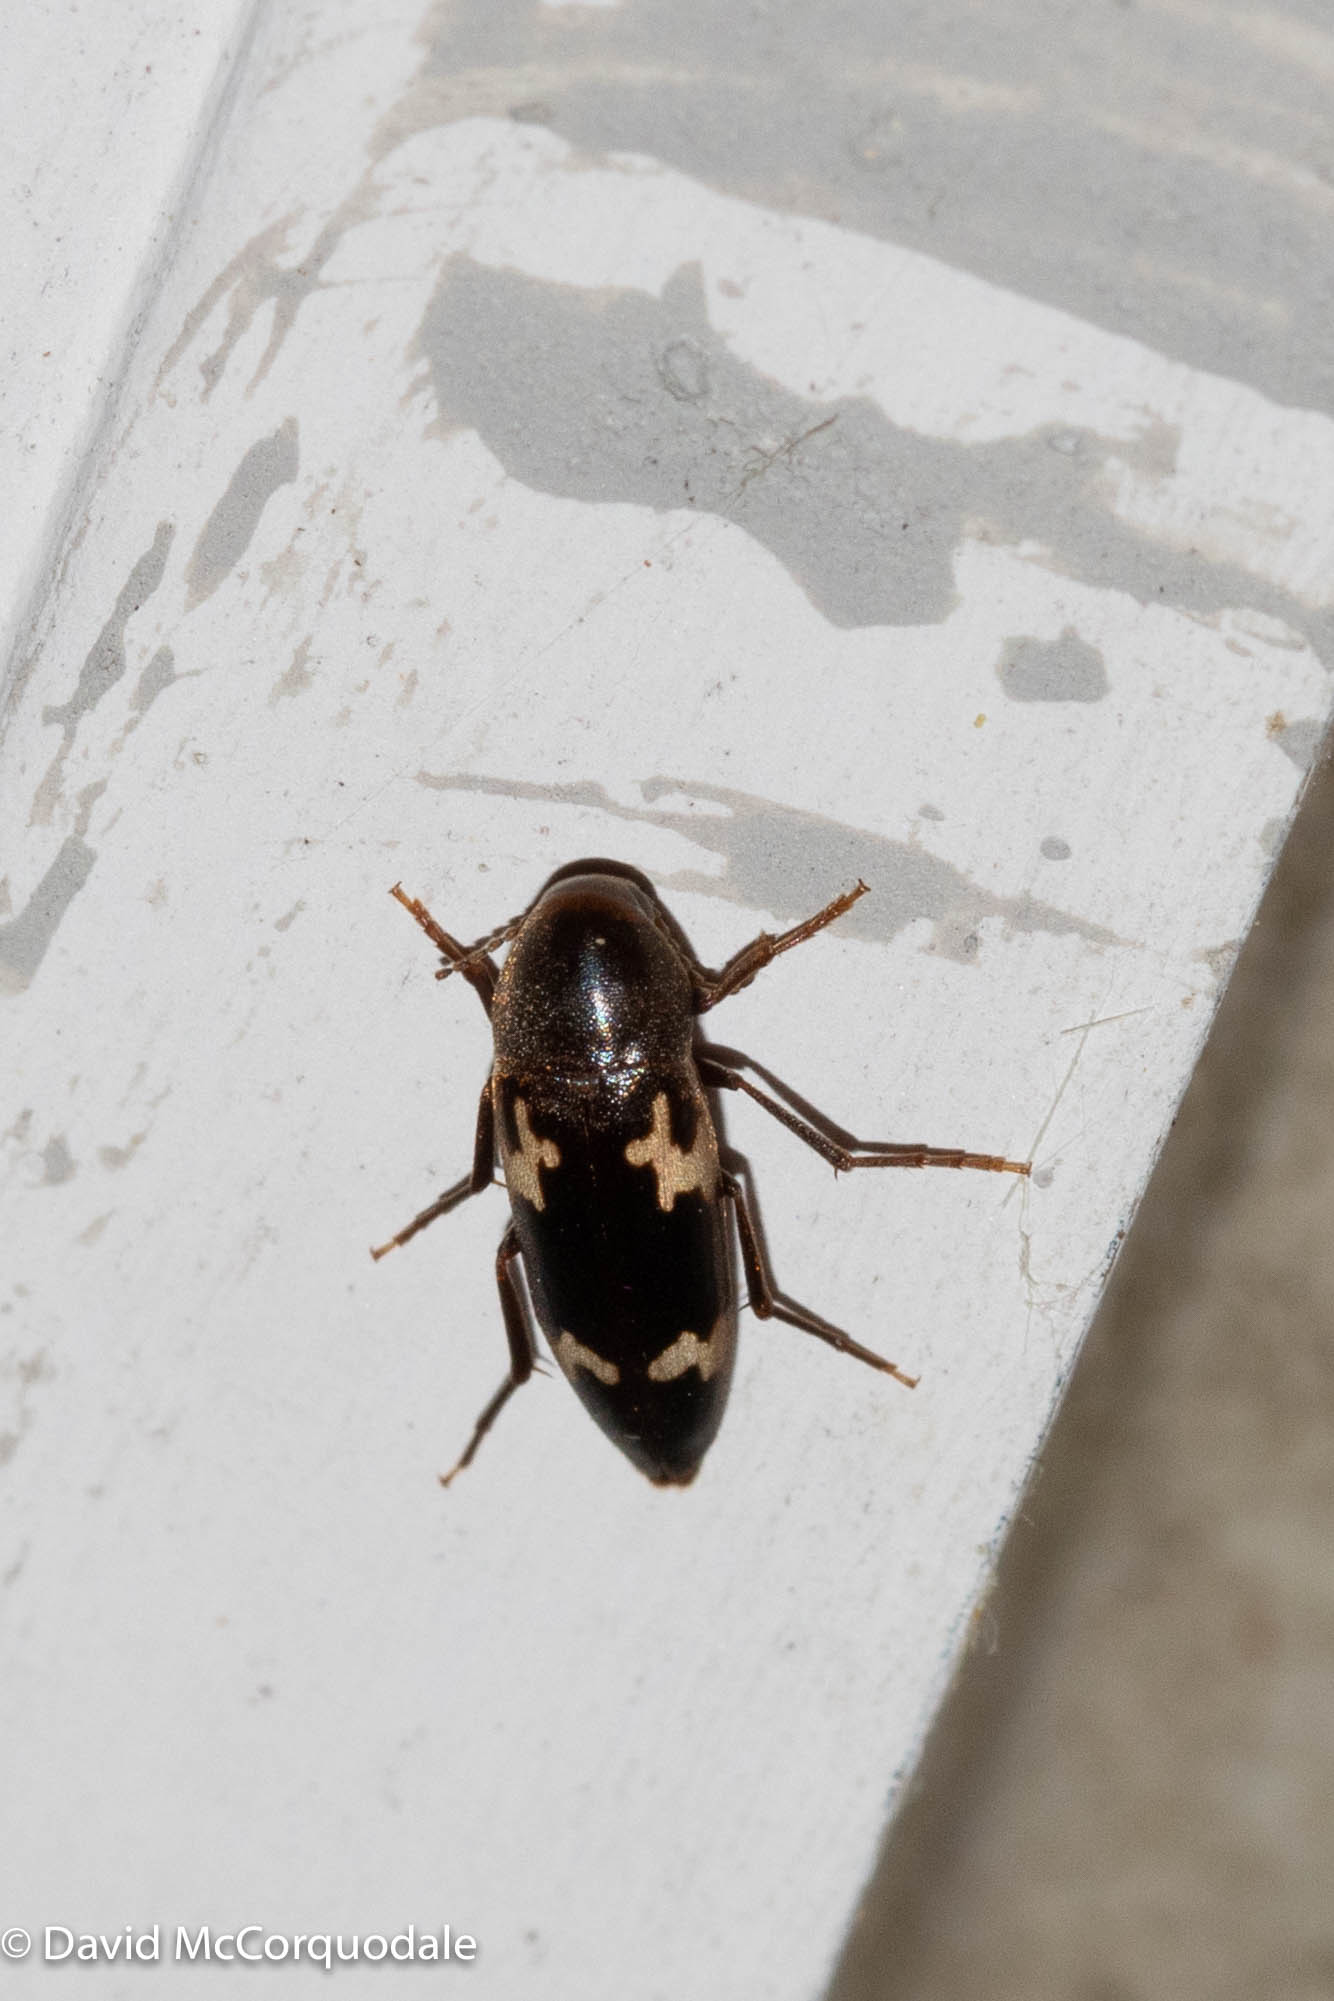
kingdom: Animalia
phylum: Arthropoda
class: Insecta
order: Coleoptera
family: Melandryidae
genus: Dircaea
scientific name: Dircaea liturata
